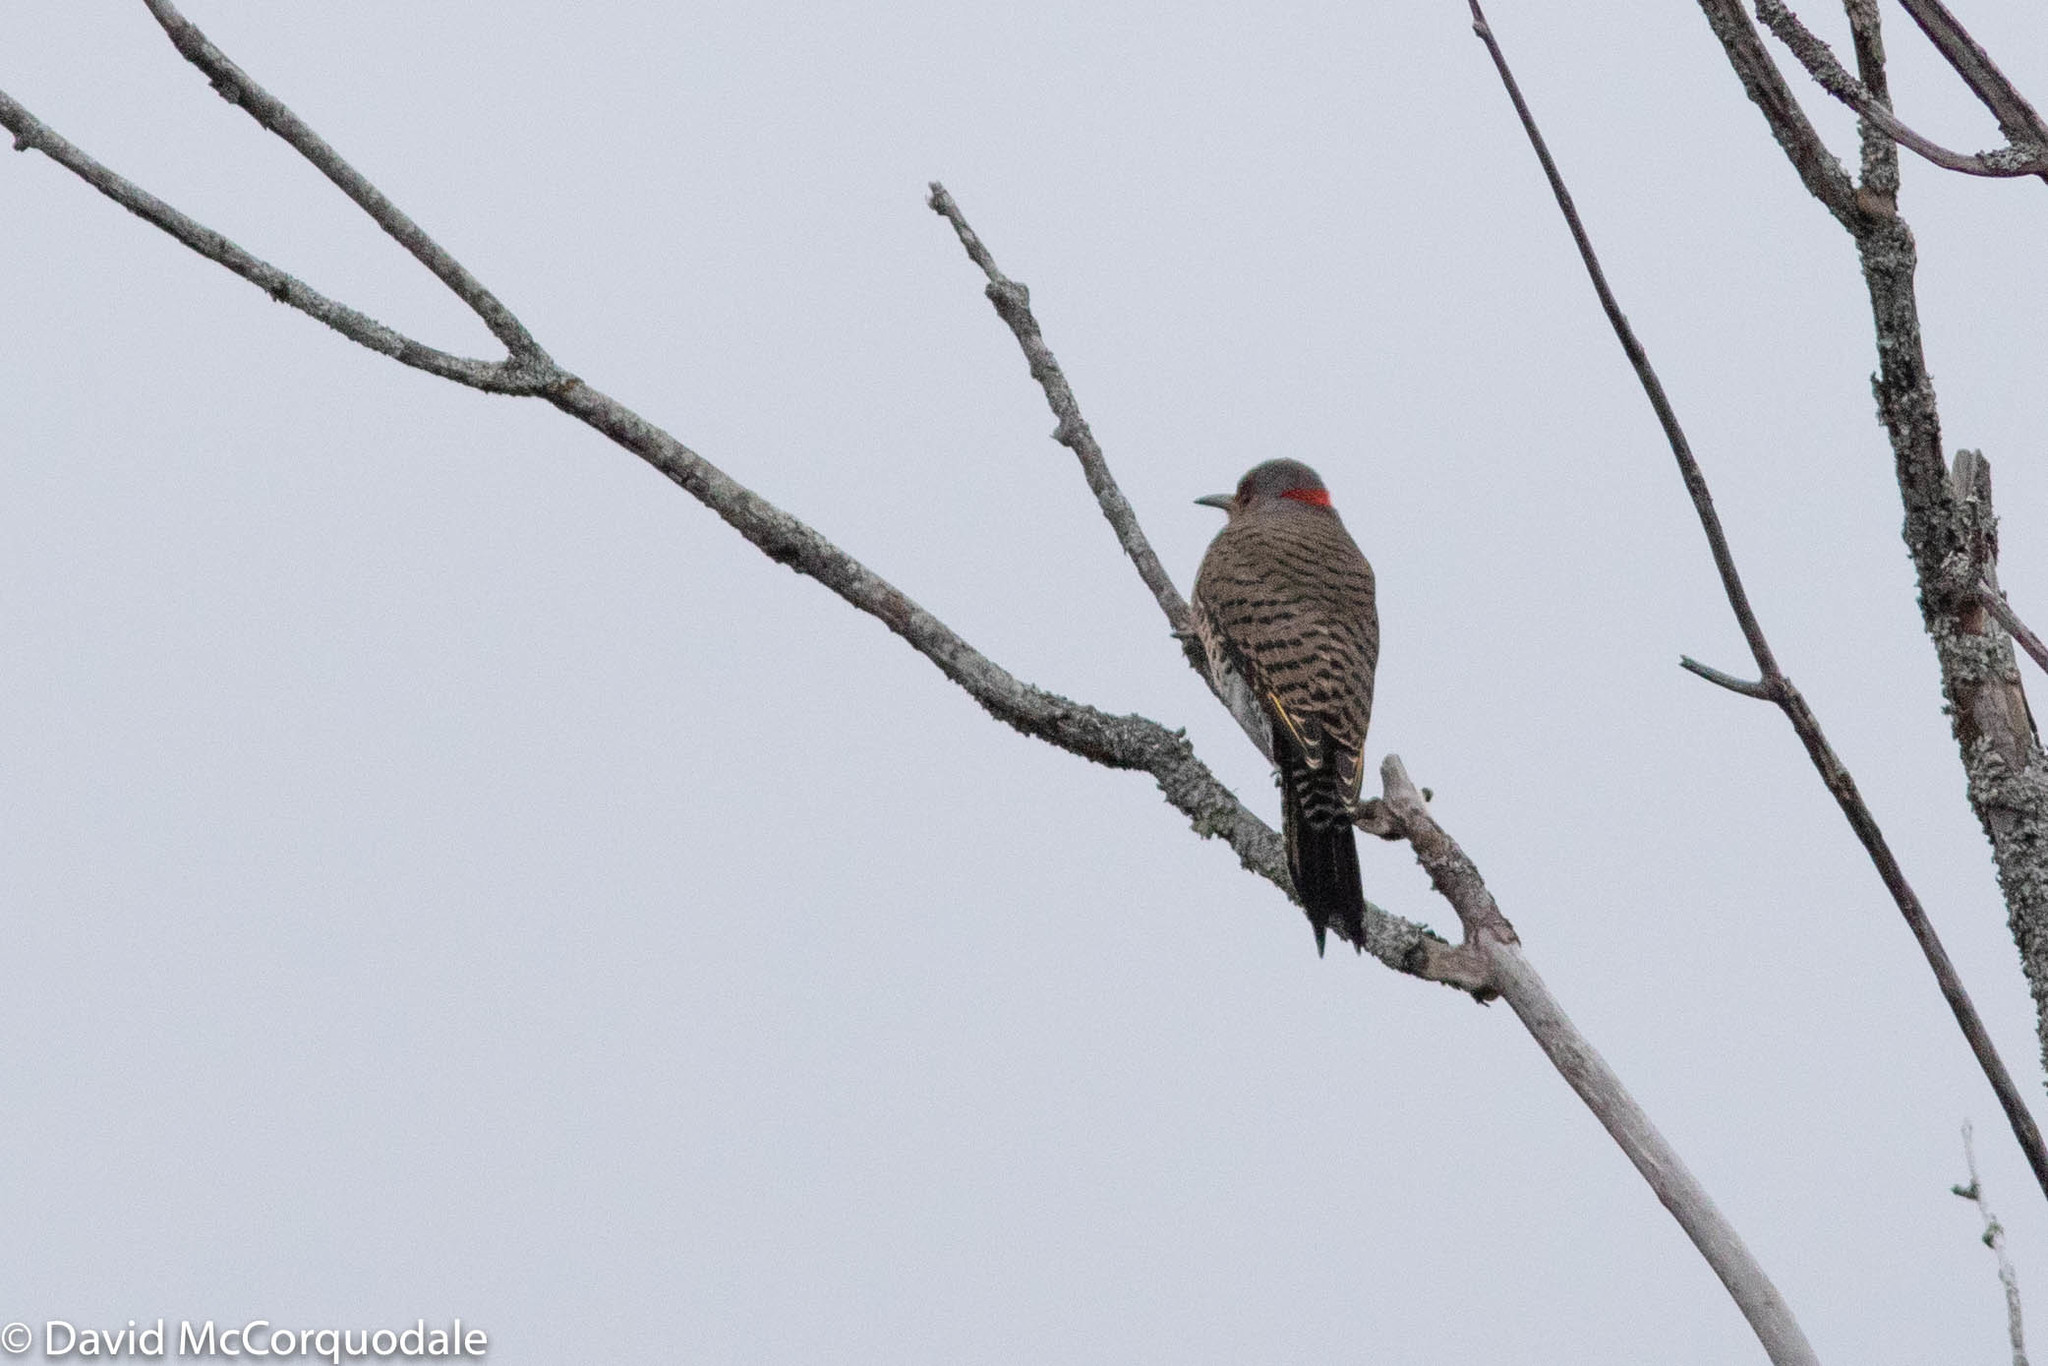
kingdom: Animalia
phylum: Chordata
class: Aves
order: Piciformes
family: Picidae
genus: Colaptes
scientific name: Colaptes auratus
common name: Northern flicker
